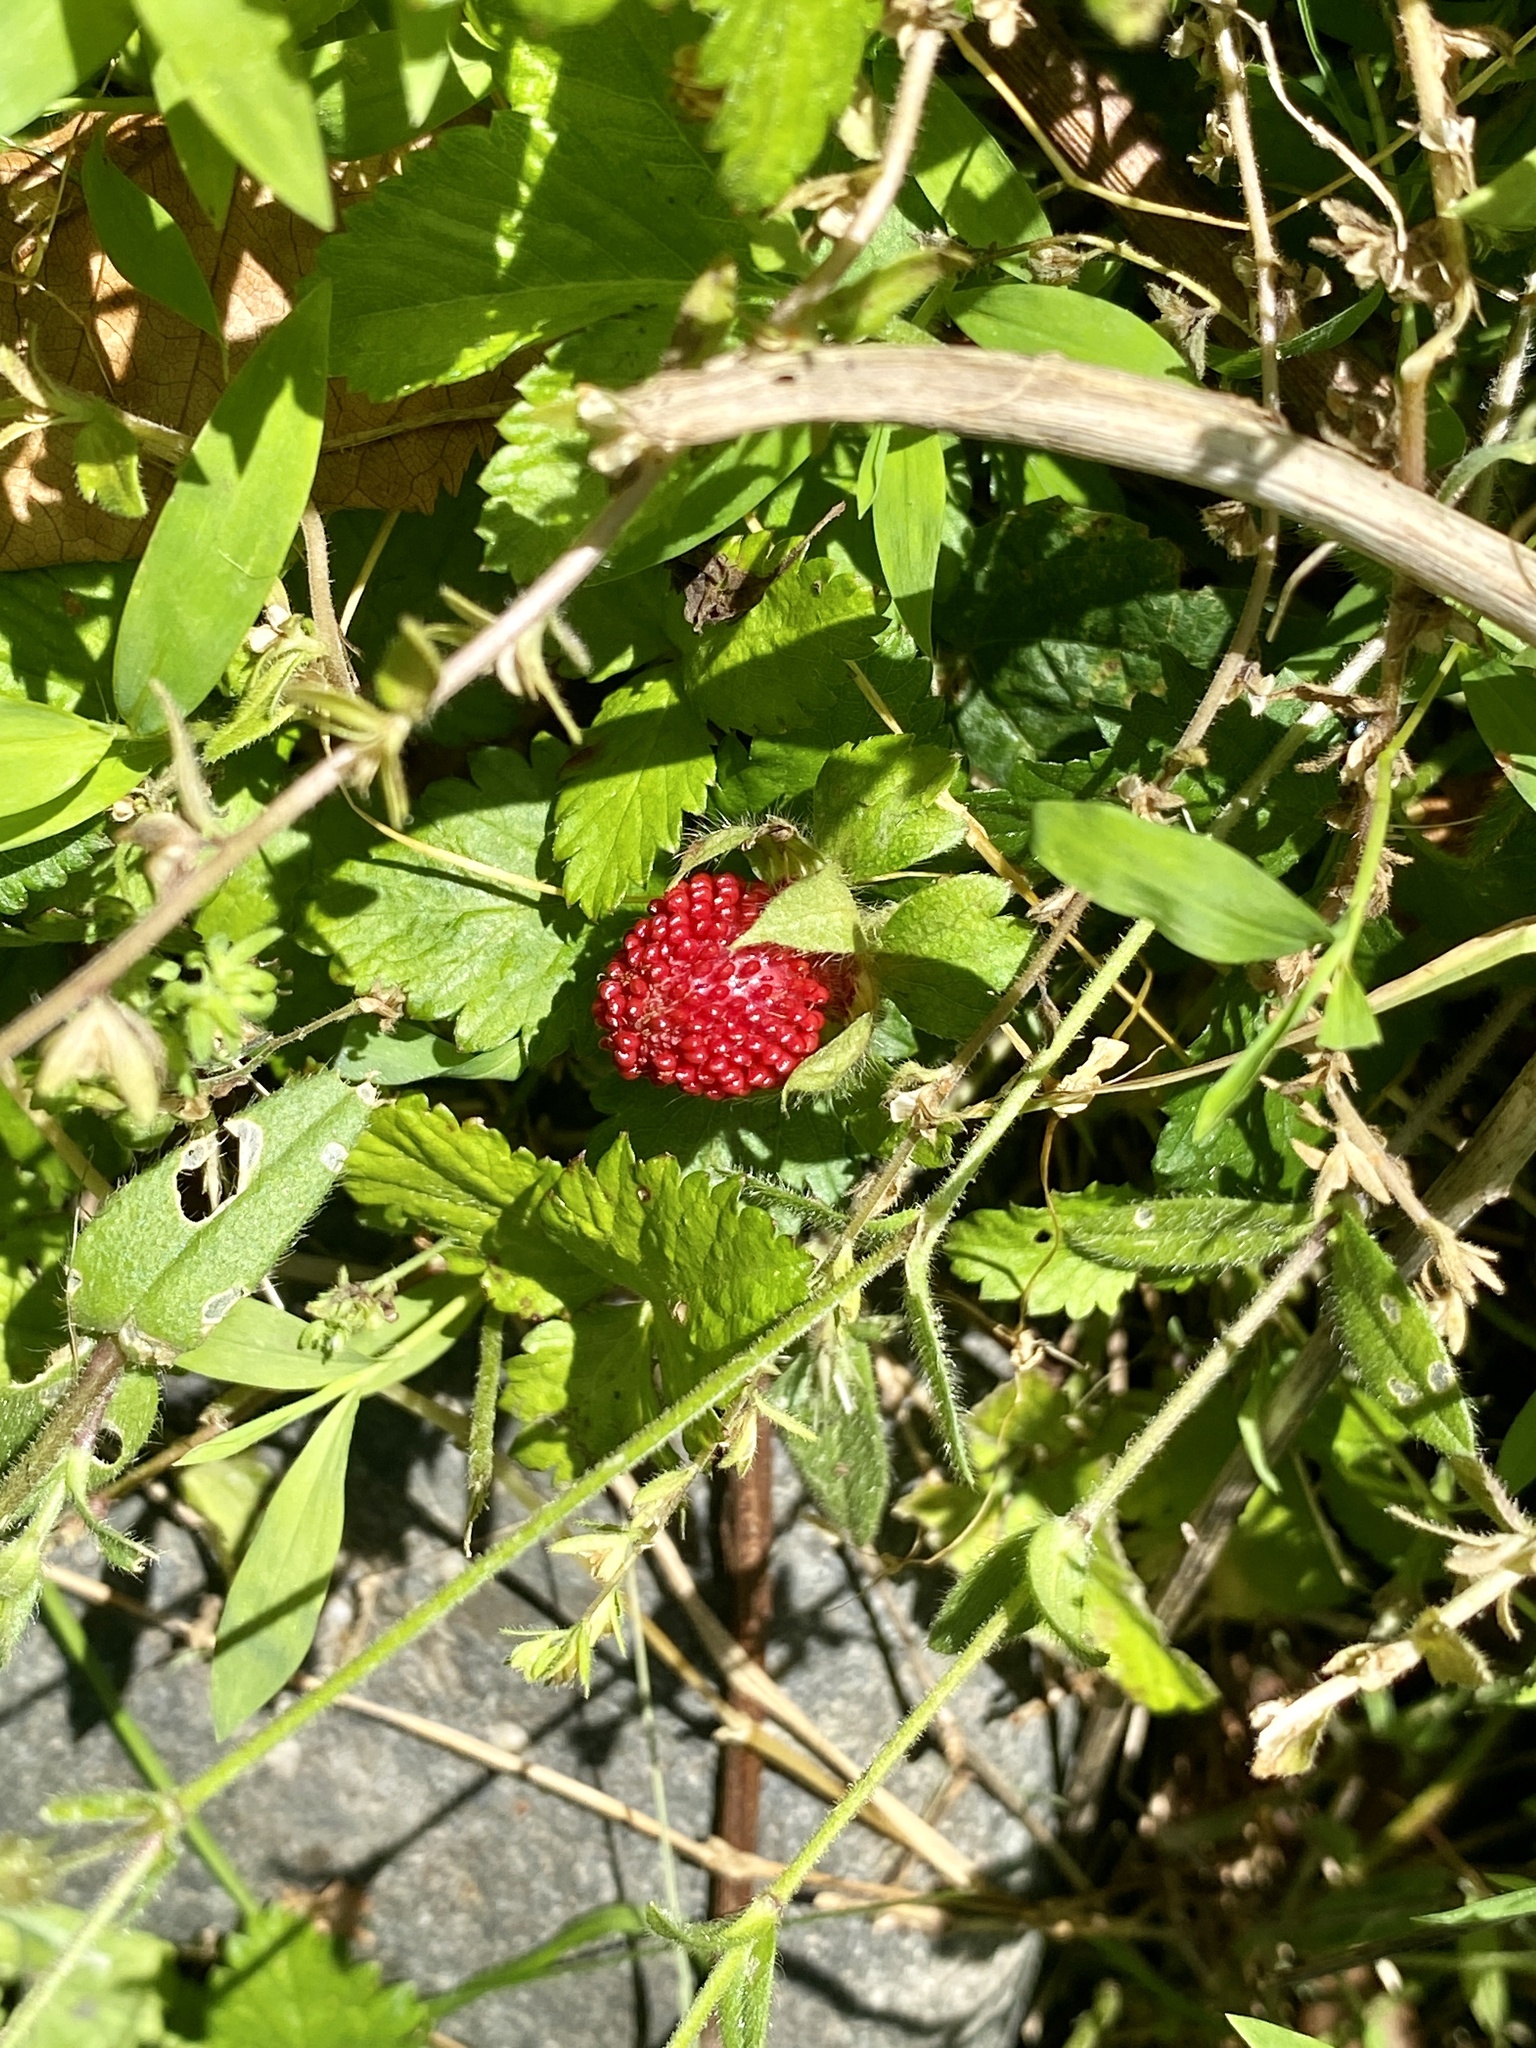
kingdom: Plantae
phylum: Tracheophyta
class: Magnoliopsida
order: Rosales
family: Rosaceae
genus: Potentilla
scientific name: Potentilla indica
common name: Yellow-flowered strawberry
